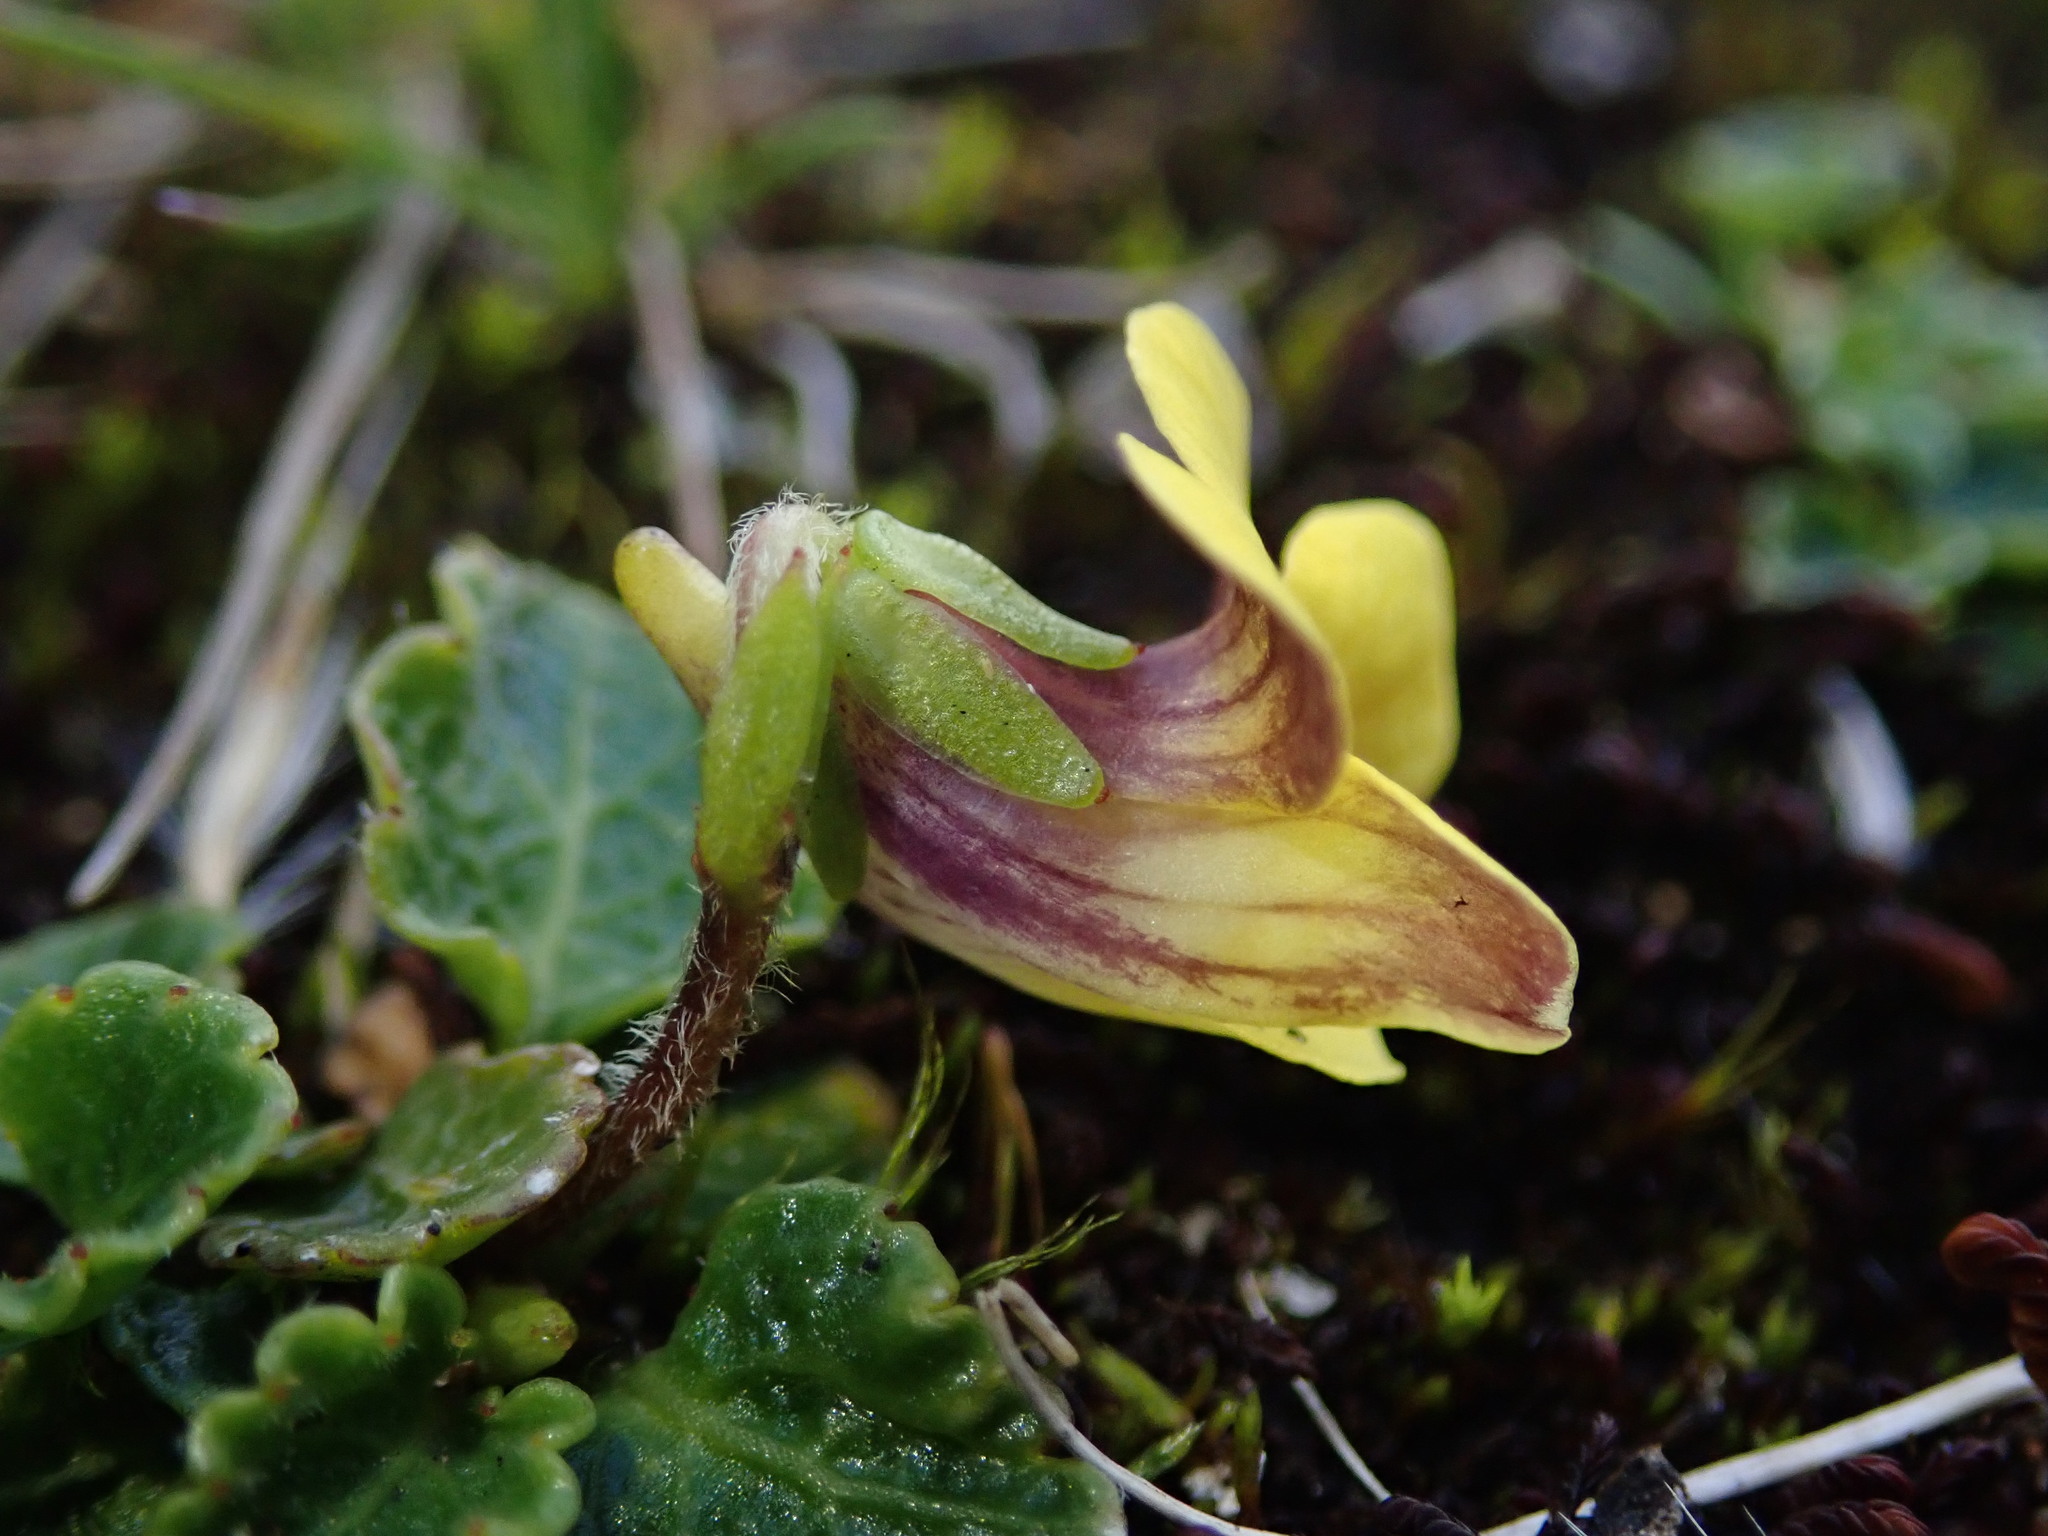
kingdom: Plantae
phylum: Tracheophyta
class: Magnoliopsida
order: Malpighiales
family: Violaceae
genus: Viola
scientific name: Viola stuebelii
